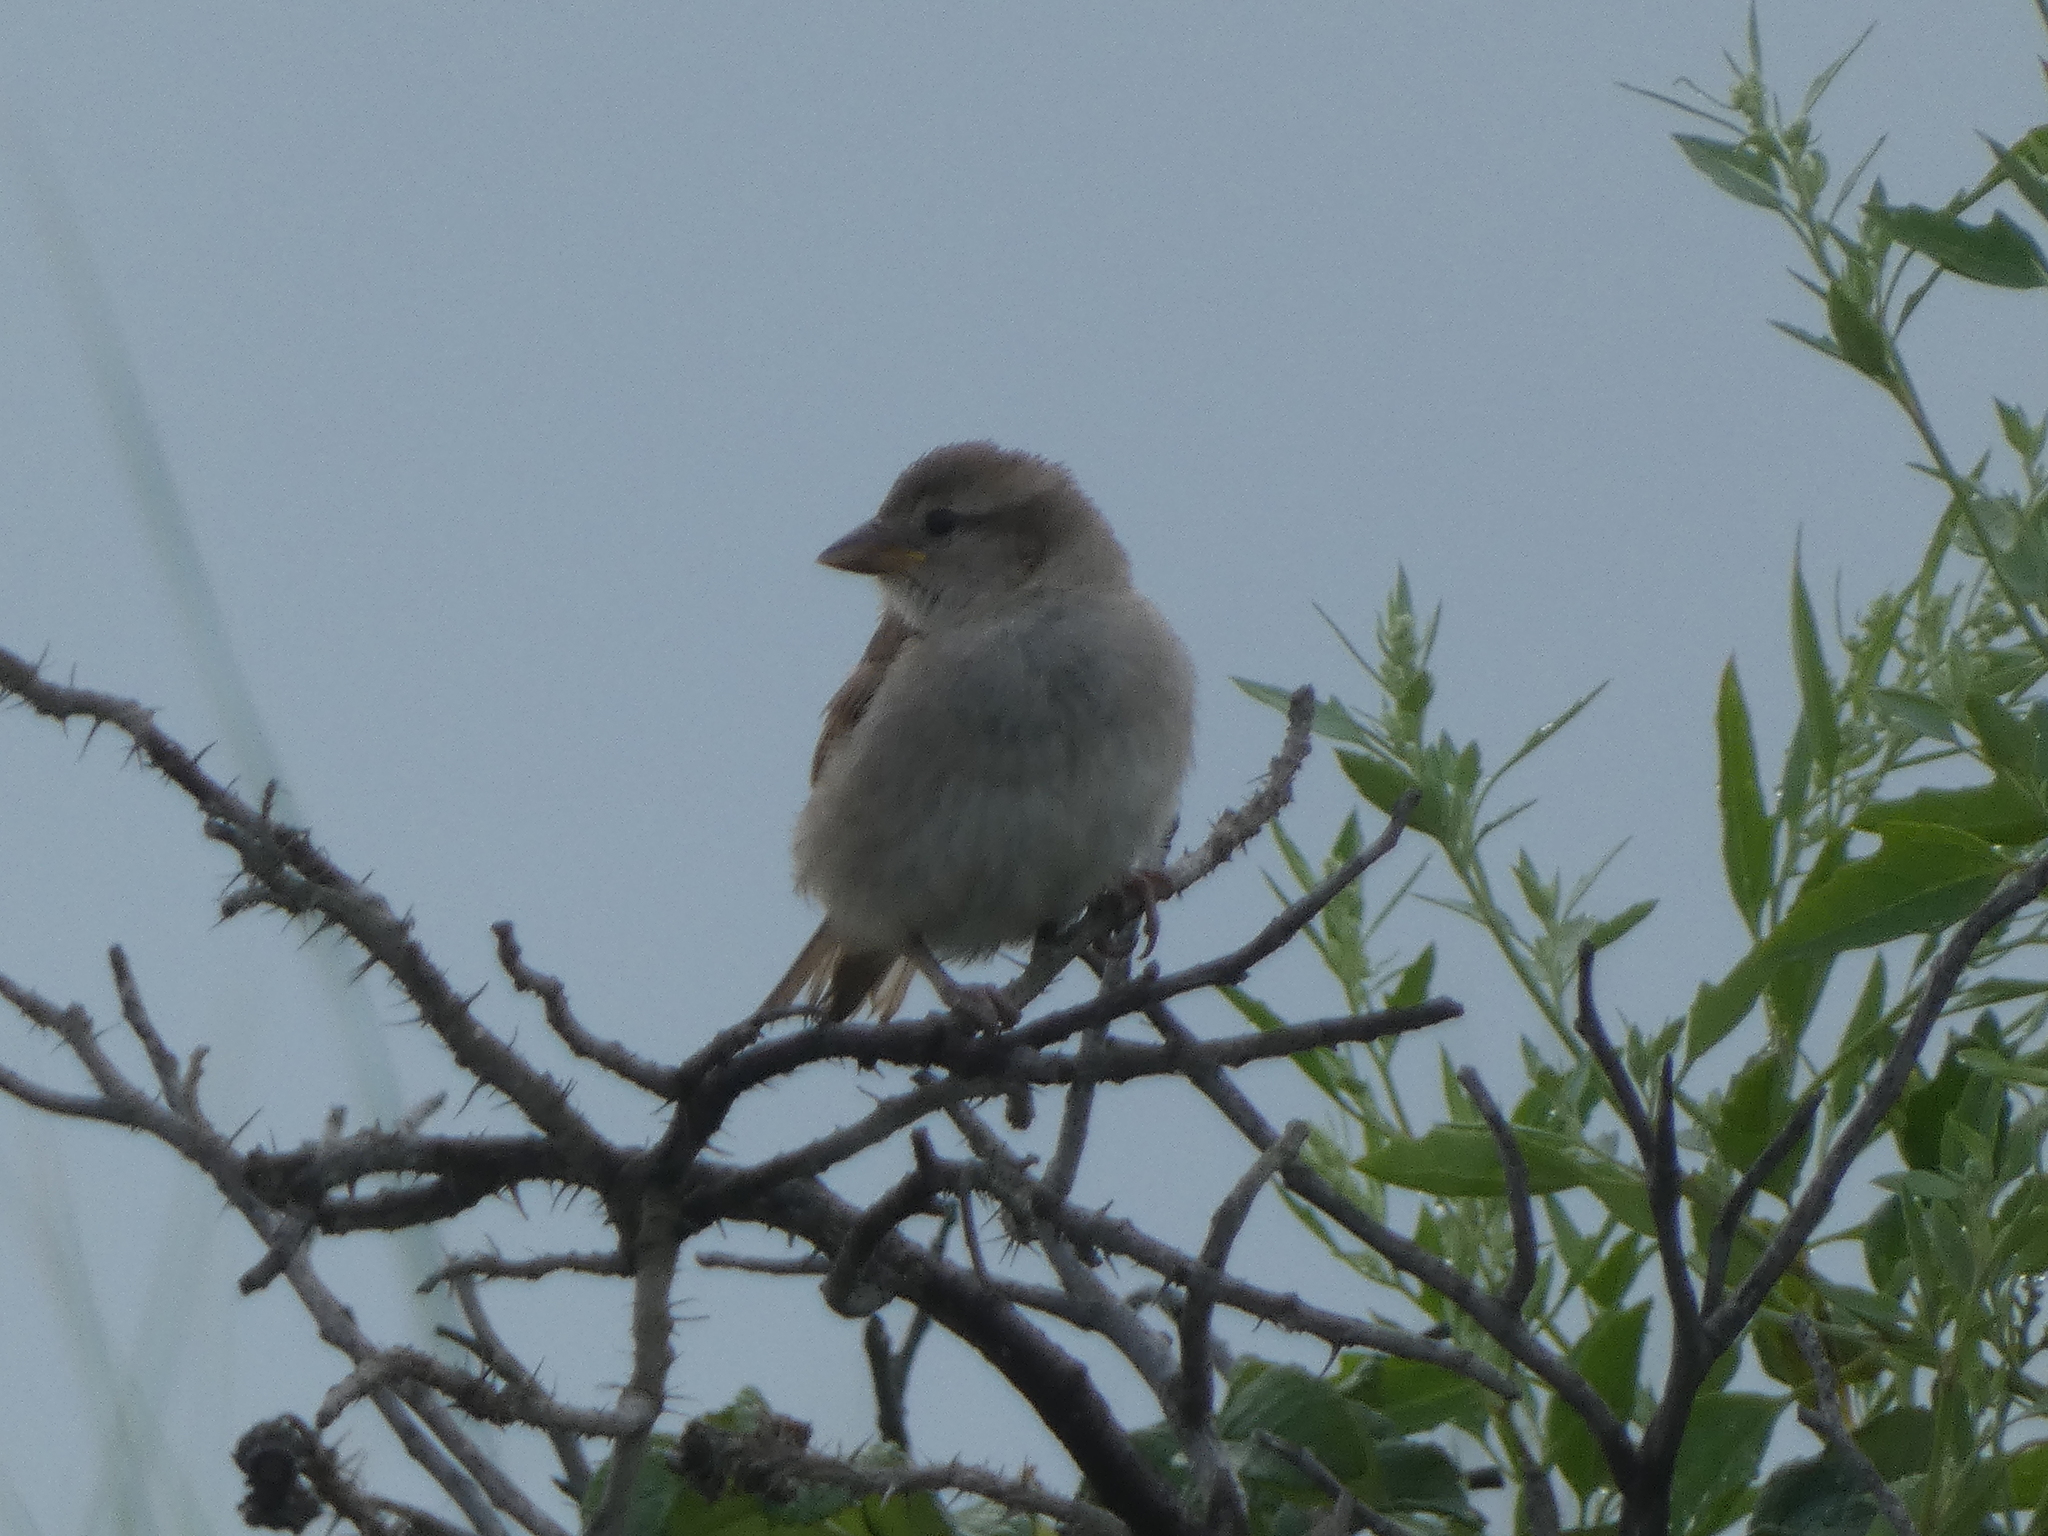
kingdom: Animalia
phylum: Chordata
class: Aves
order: Passeriformes
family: Passeridae
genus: Passer
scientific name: Passer domesticus
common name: House sparrow
